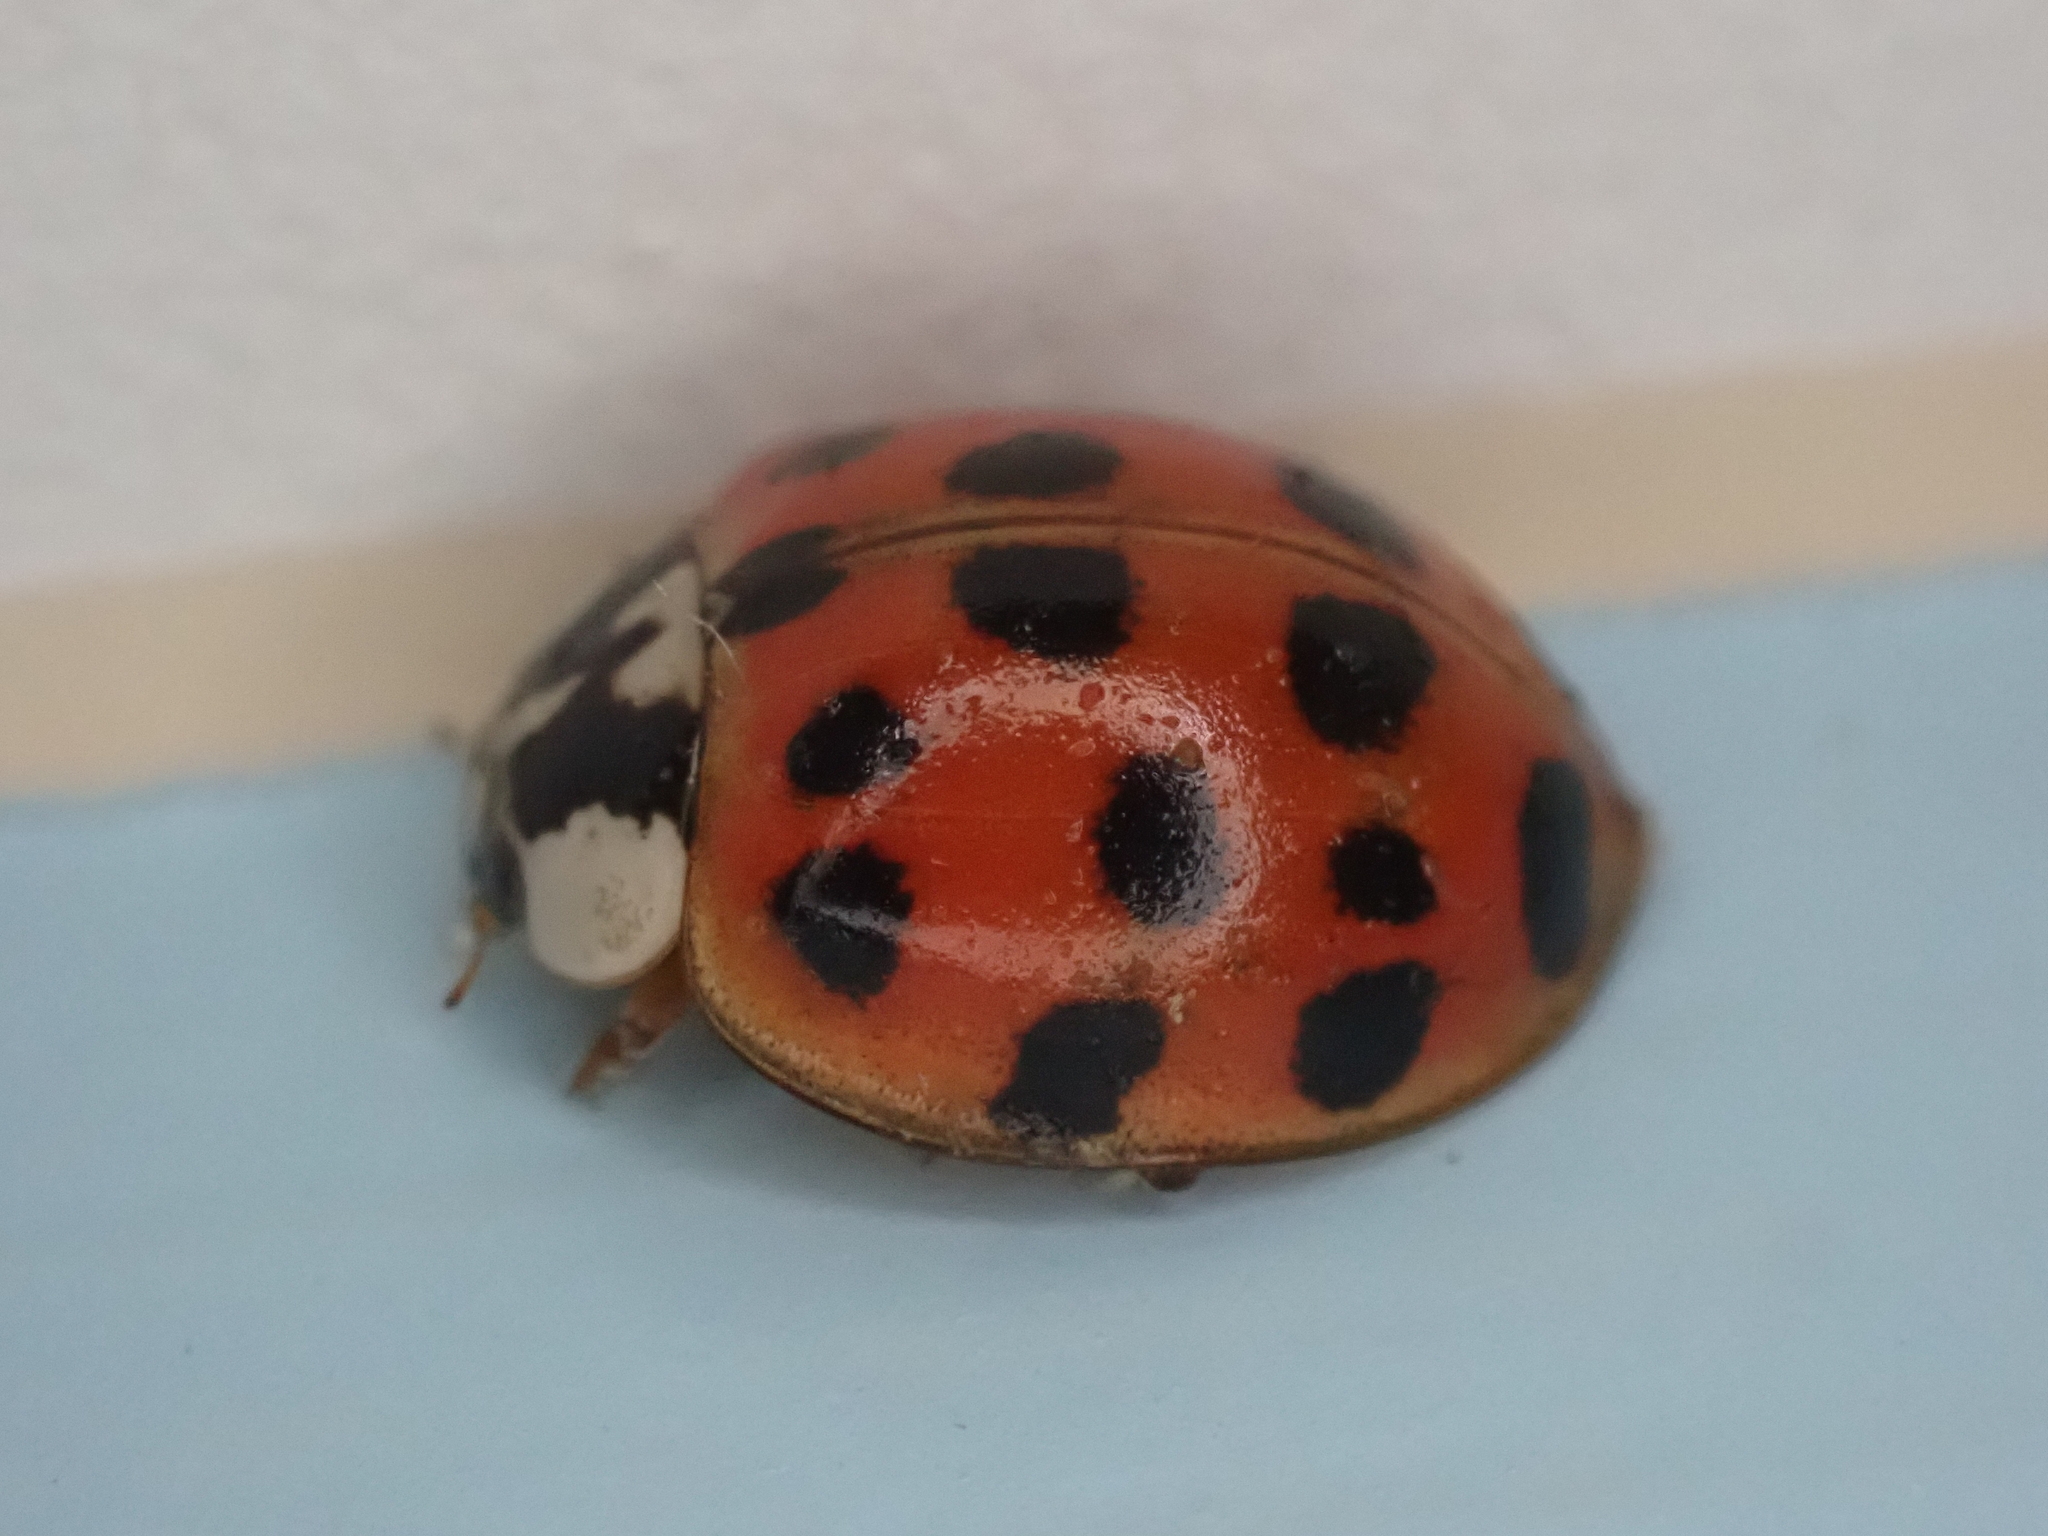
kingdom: Animalia
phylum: Arthropoda
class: Insecta
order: Coleoptera
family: Coccinellidae
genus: Harmonia
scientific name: Harmonia axyridis
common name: Harlequin ladybird
